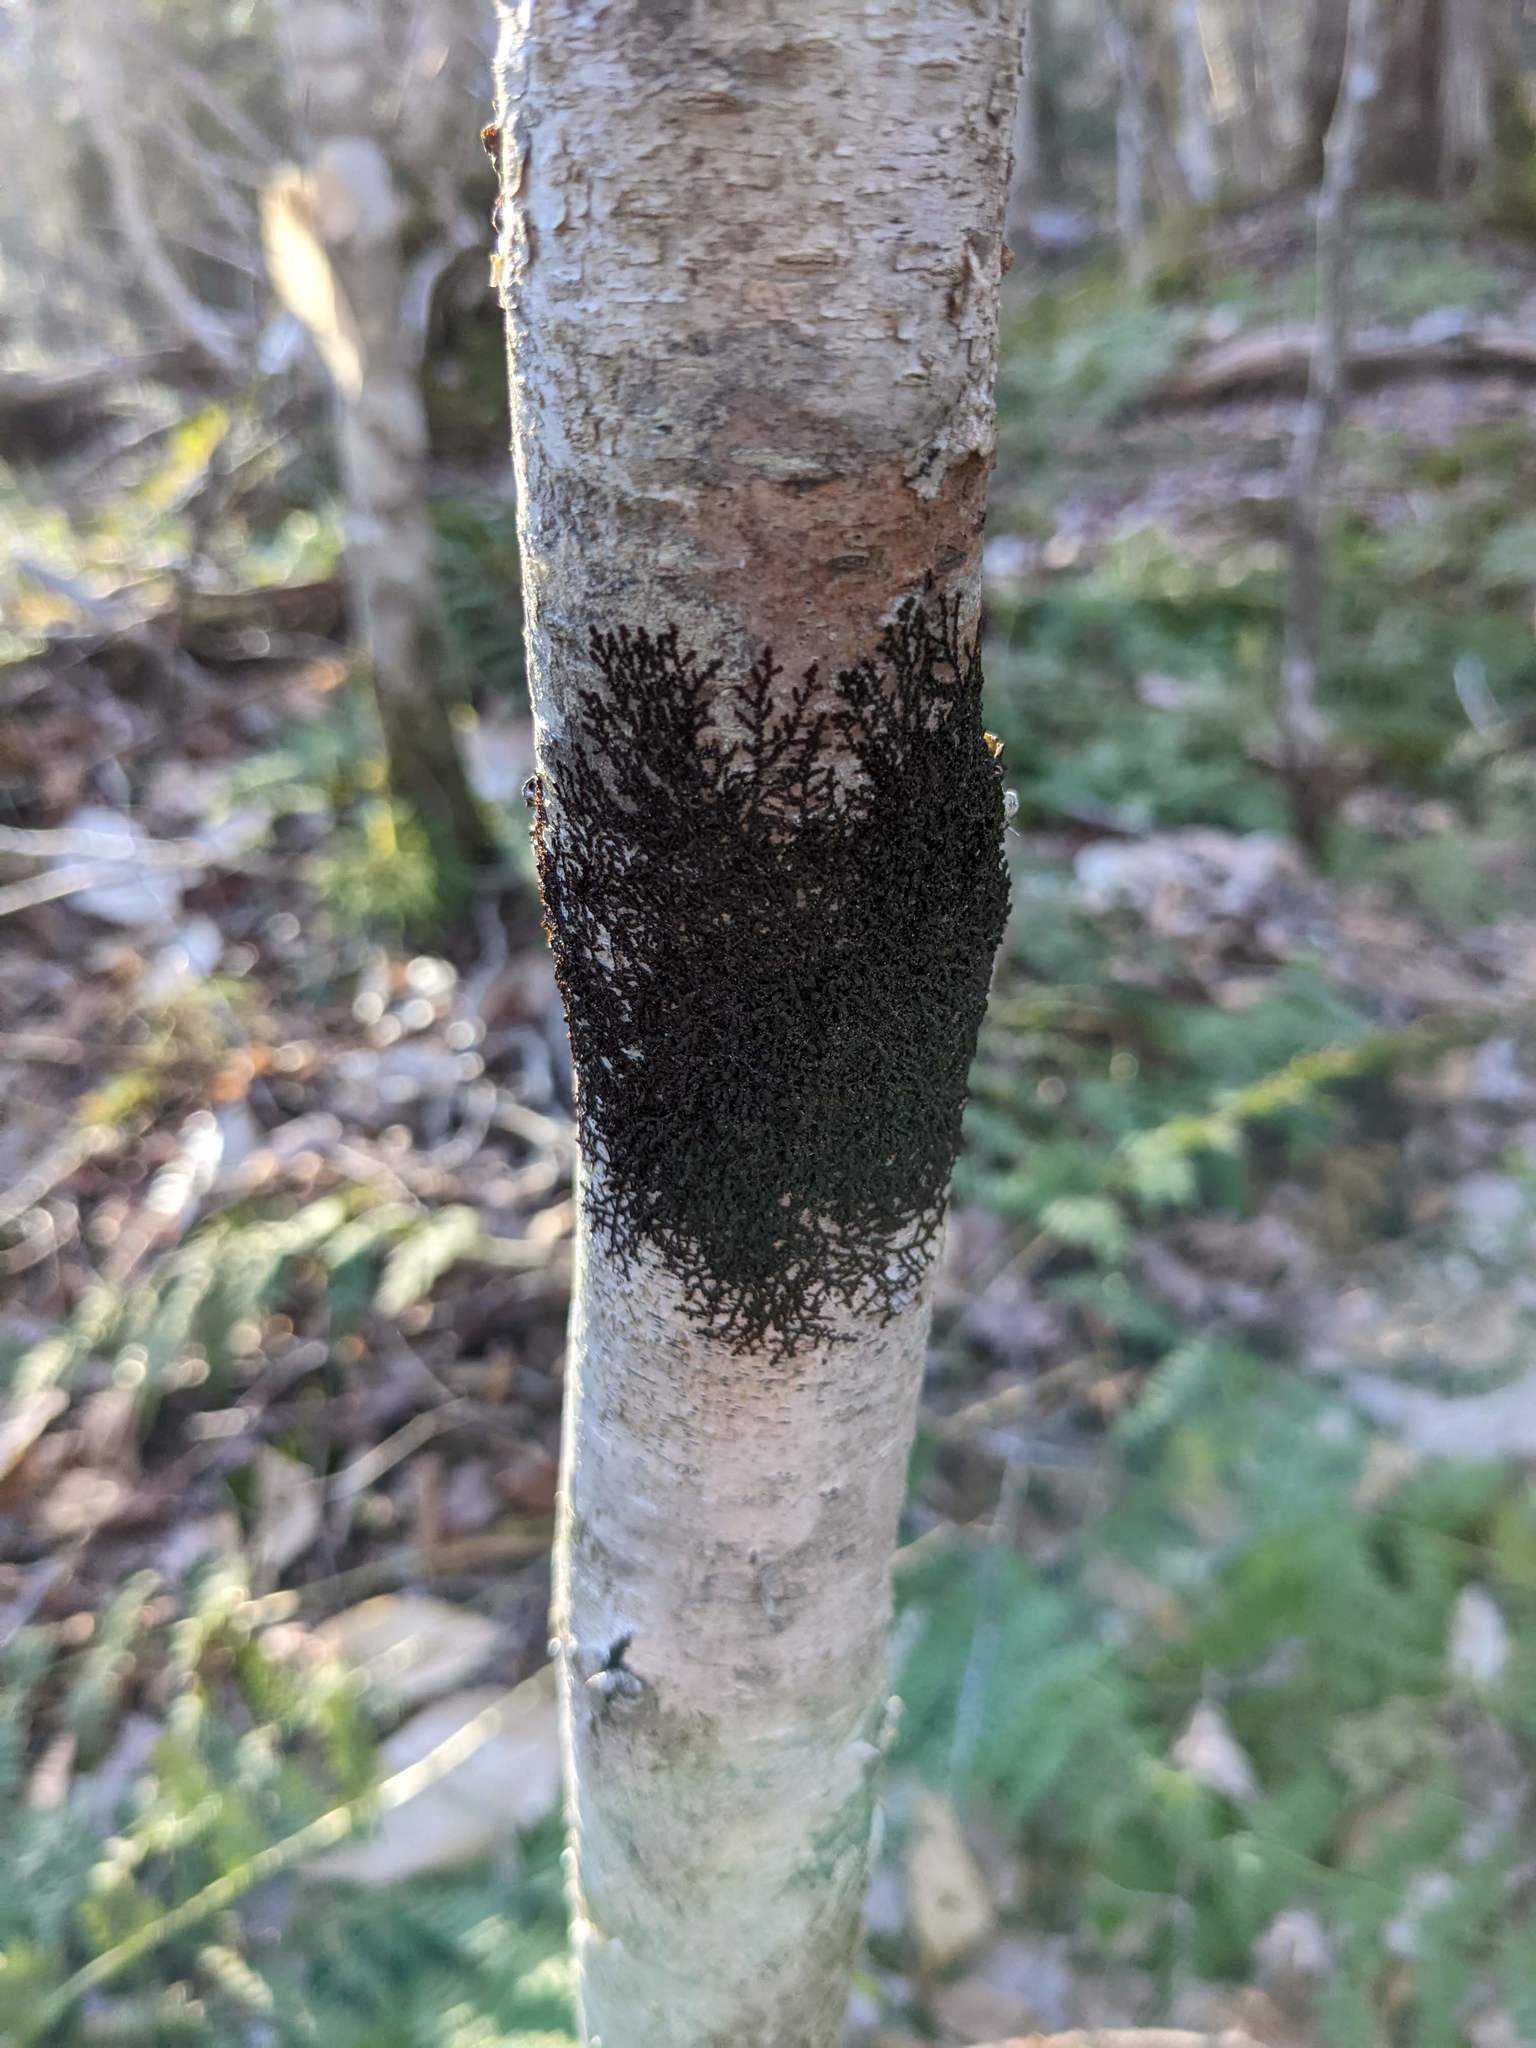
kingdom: Plantae
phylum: Marchantiophyta
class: Jungermanniopsida
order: Porellales
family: Frullaniaceae
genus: Frullania
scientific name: Frullania eboracensis
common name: New york scalewort
